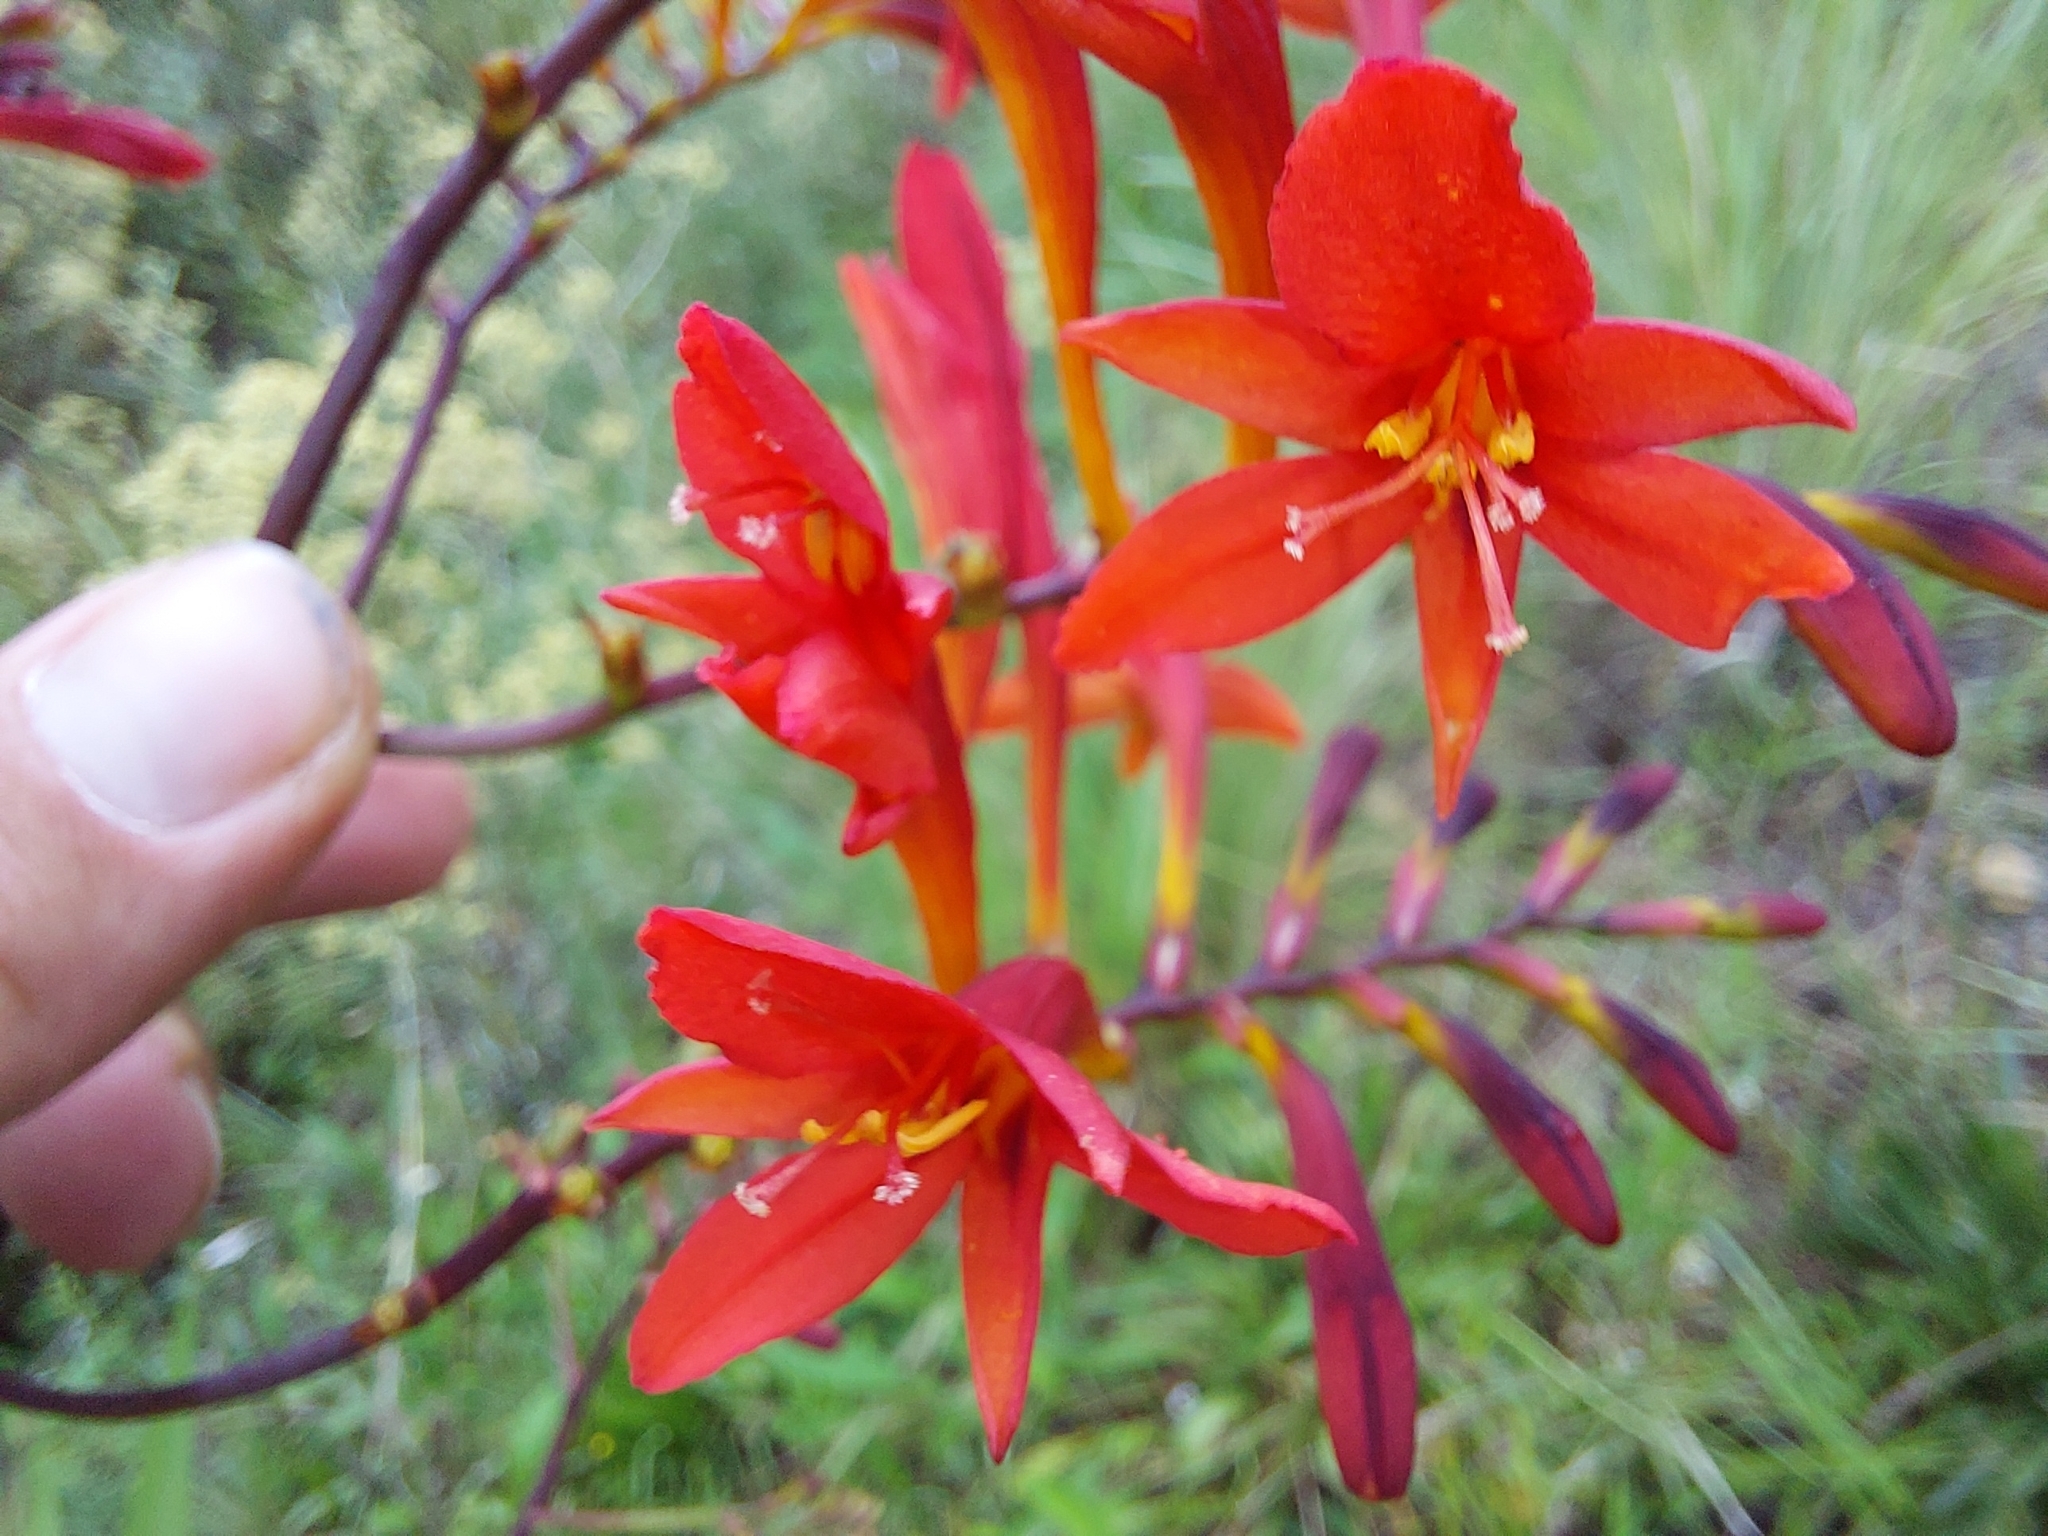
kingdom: Plantae
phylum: Tracheophyta
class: Liliopsida
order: Asparagales
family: Iridaceae
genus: Crocosmia
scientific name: Crocosmia paniculata
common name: Aunt eliza
